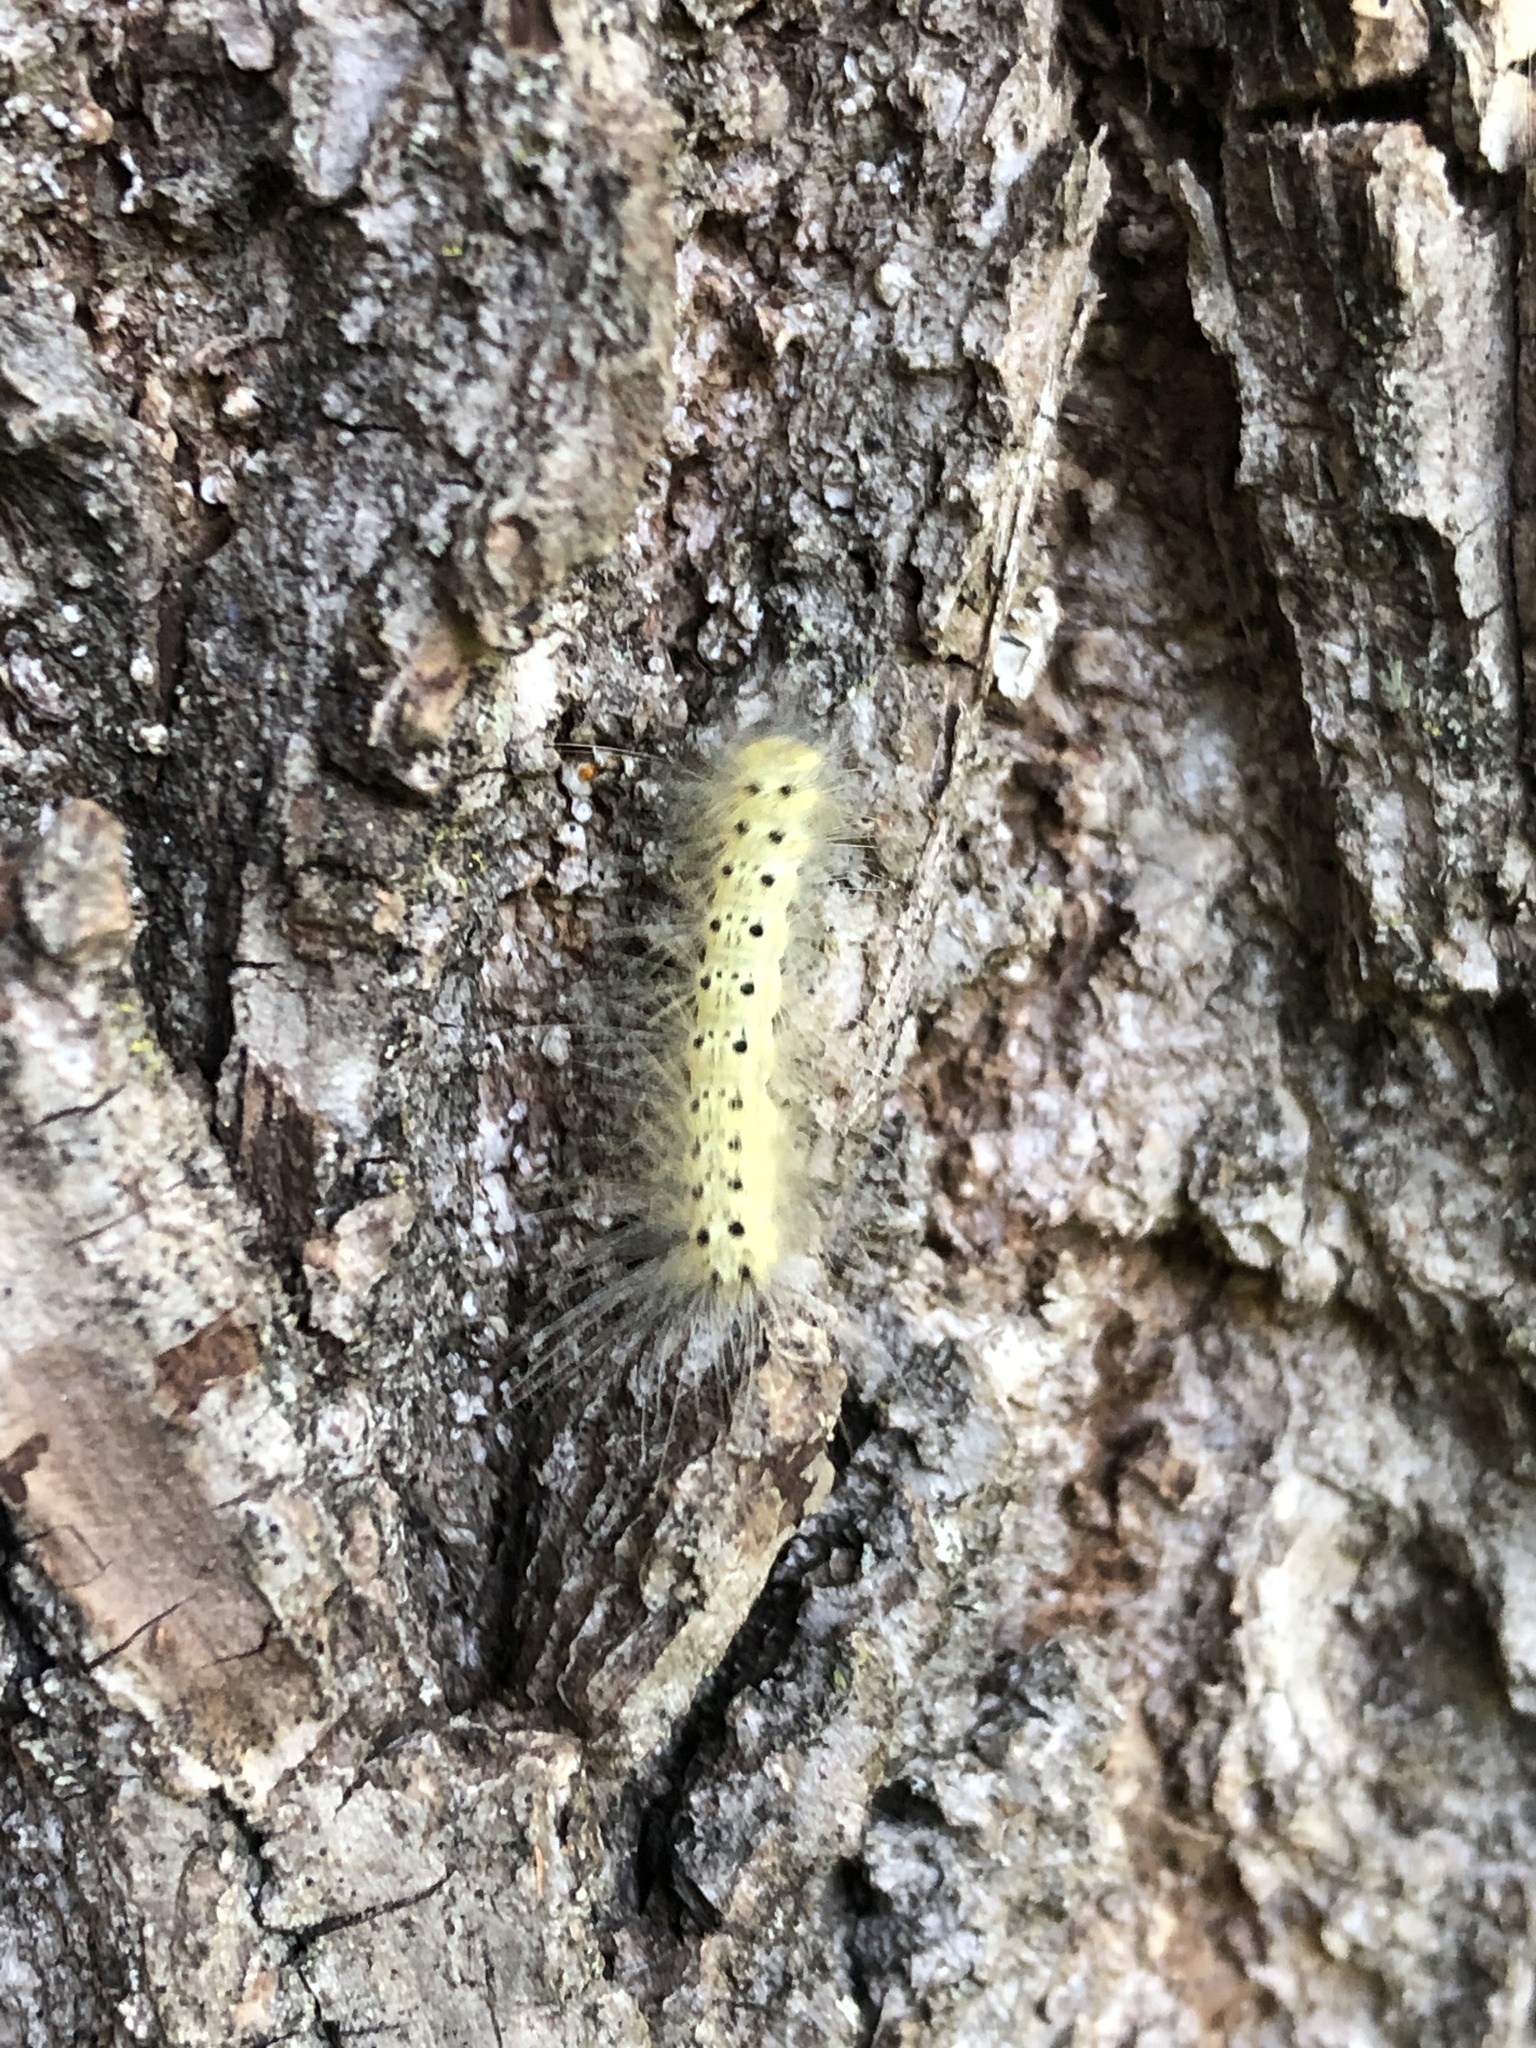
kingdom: Animalia
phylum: Arthropoda
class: Insecta
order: Lepidoptera
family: Erebidae
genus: Hyphantria
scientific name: Hyphantria cunea
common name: American white moth
